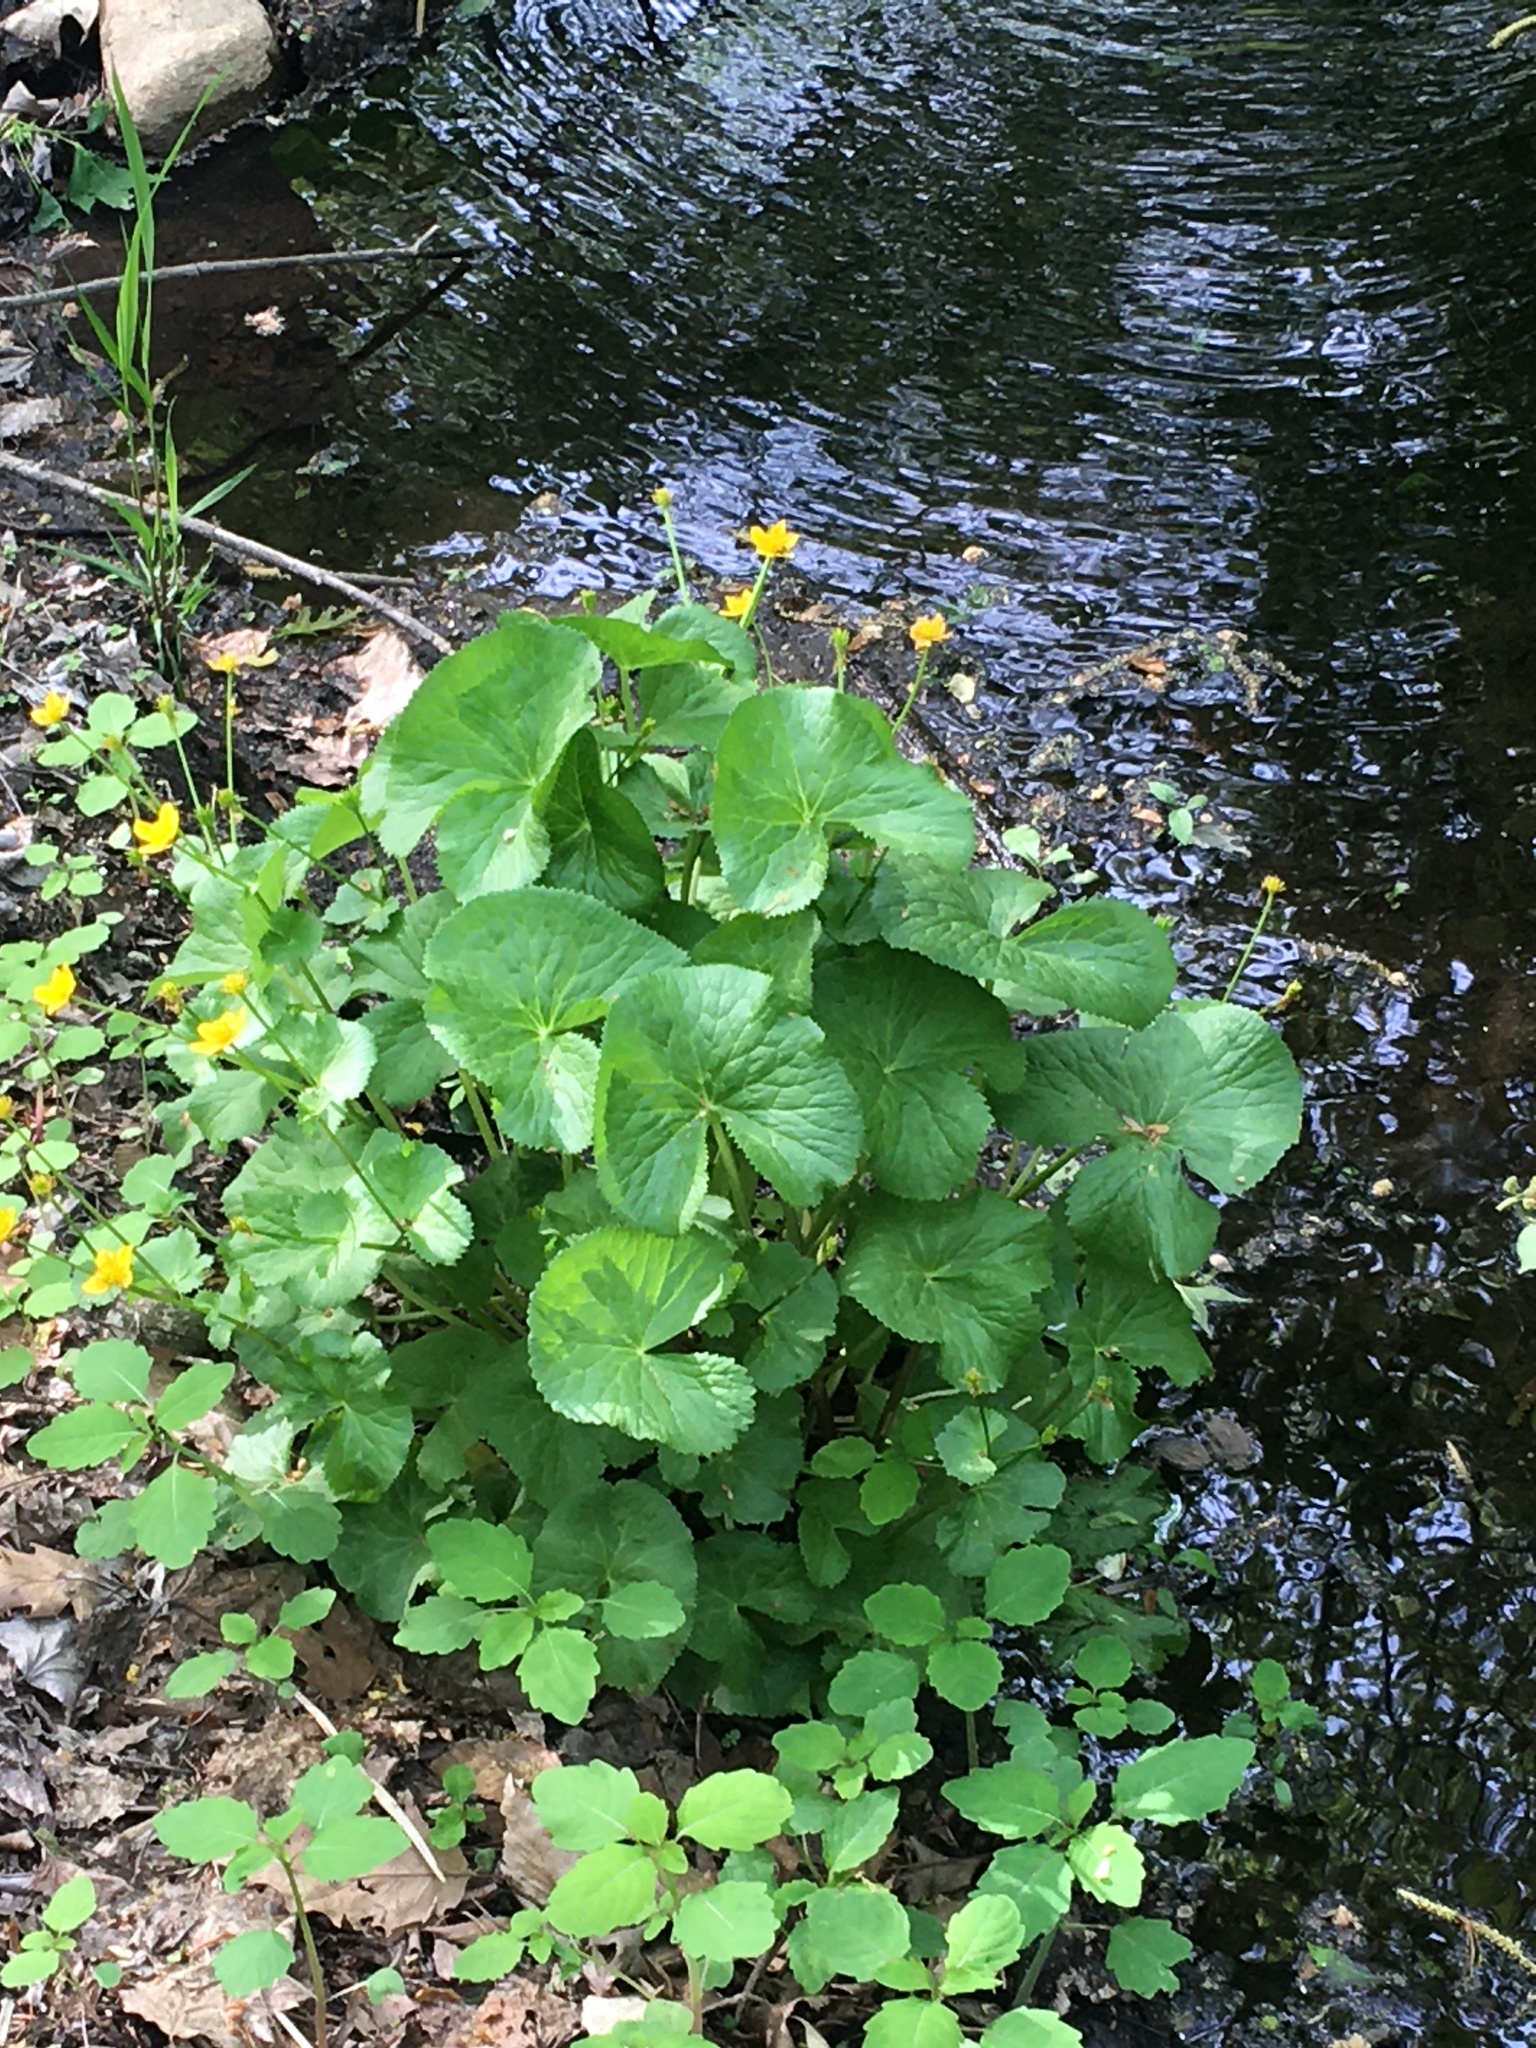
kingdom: Plantae
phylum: Tracheophyta
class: Magnoliopsida
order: Ranunculales
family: Ranunculaceae
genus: Caltha
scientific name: Caltha palustris
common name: Marsh marigold
